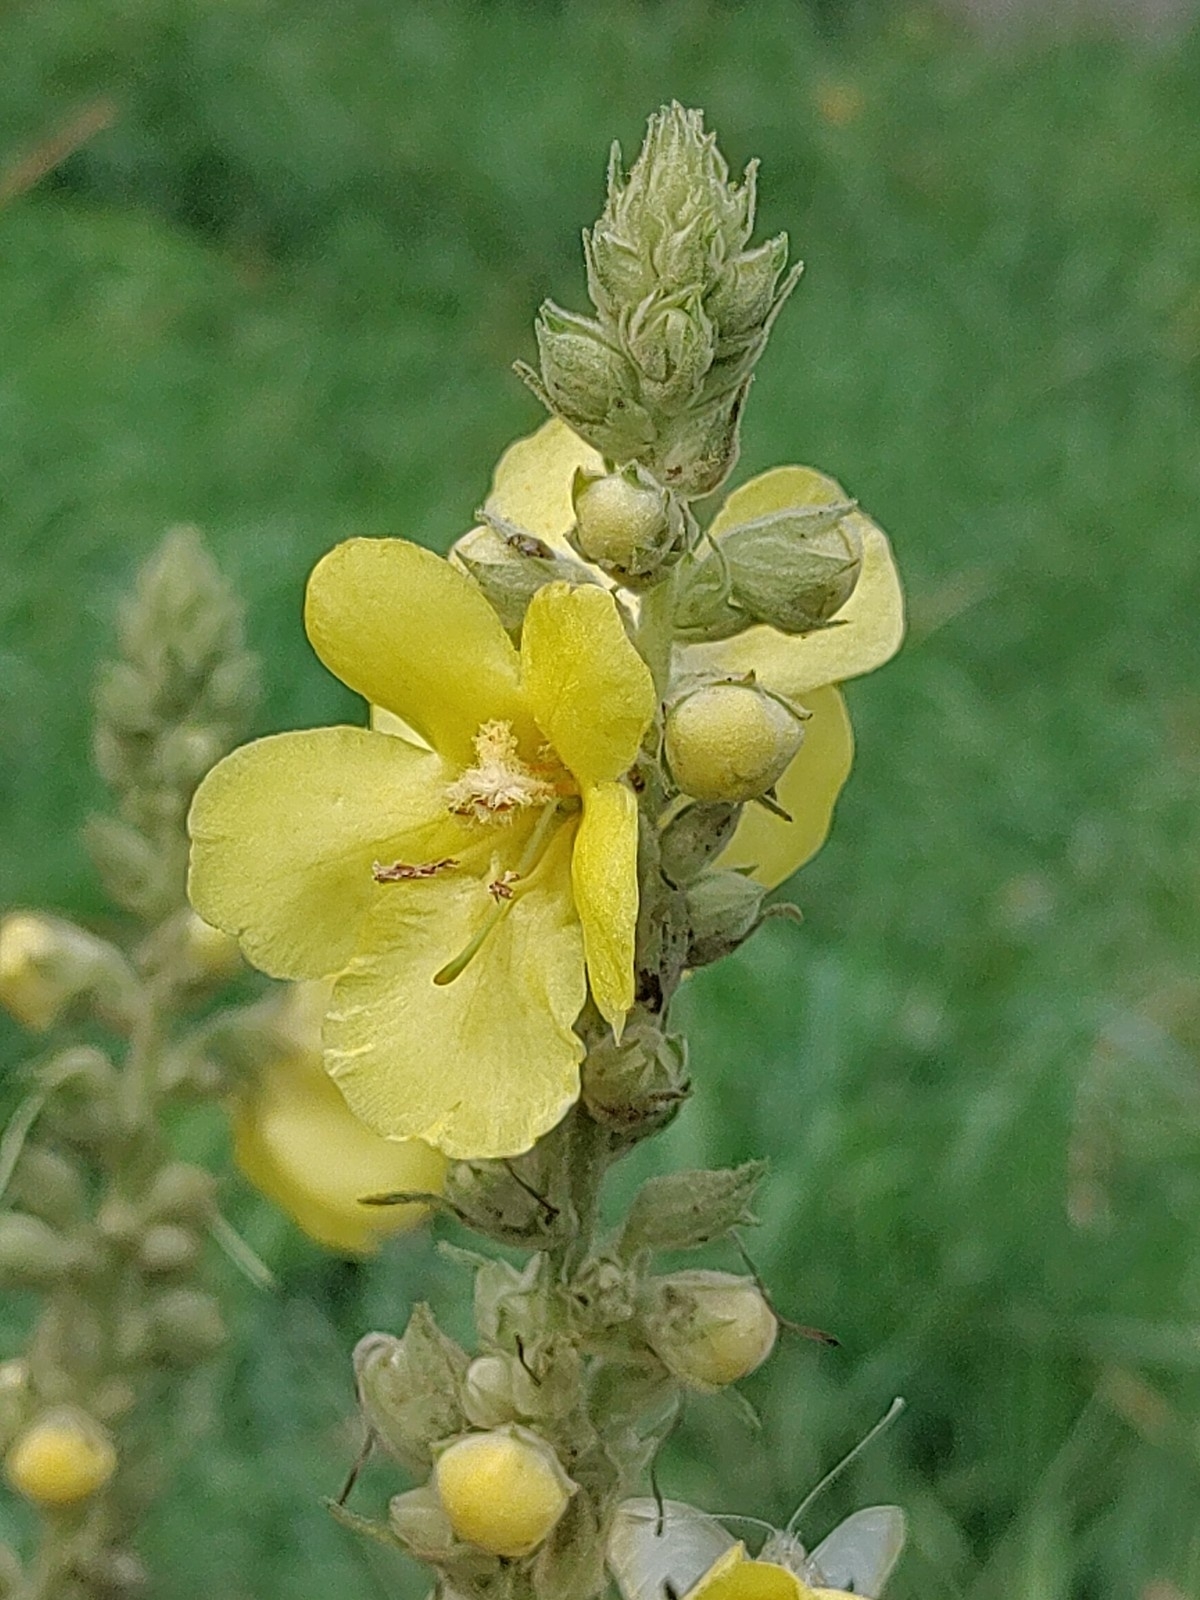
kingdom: Plantae
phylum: Tracheophyta
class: Magnoliopsida
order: Lamiales
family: Scrophulariaceae
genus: Verbascum
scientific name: Verbascum phlomoides
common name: Orange mullein
